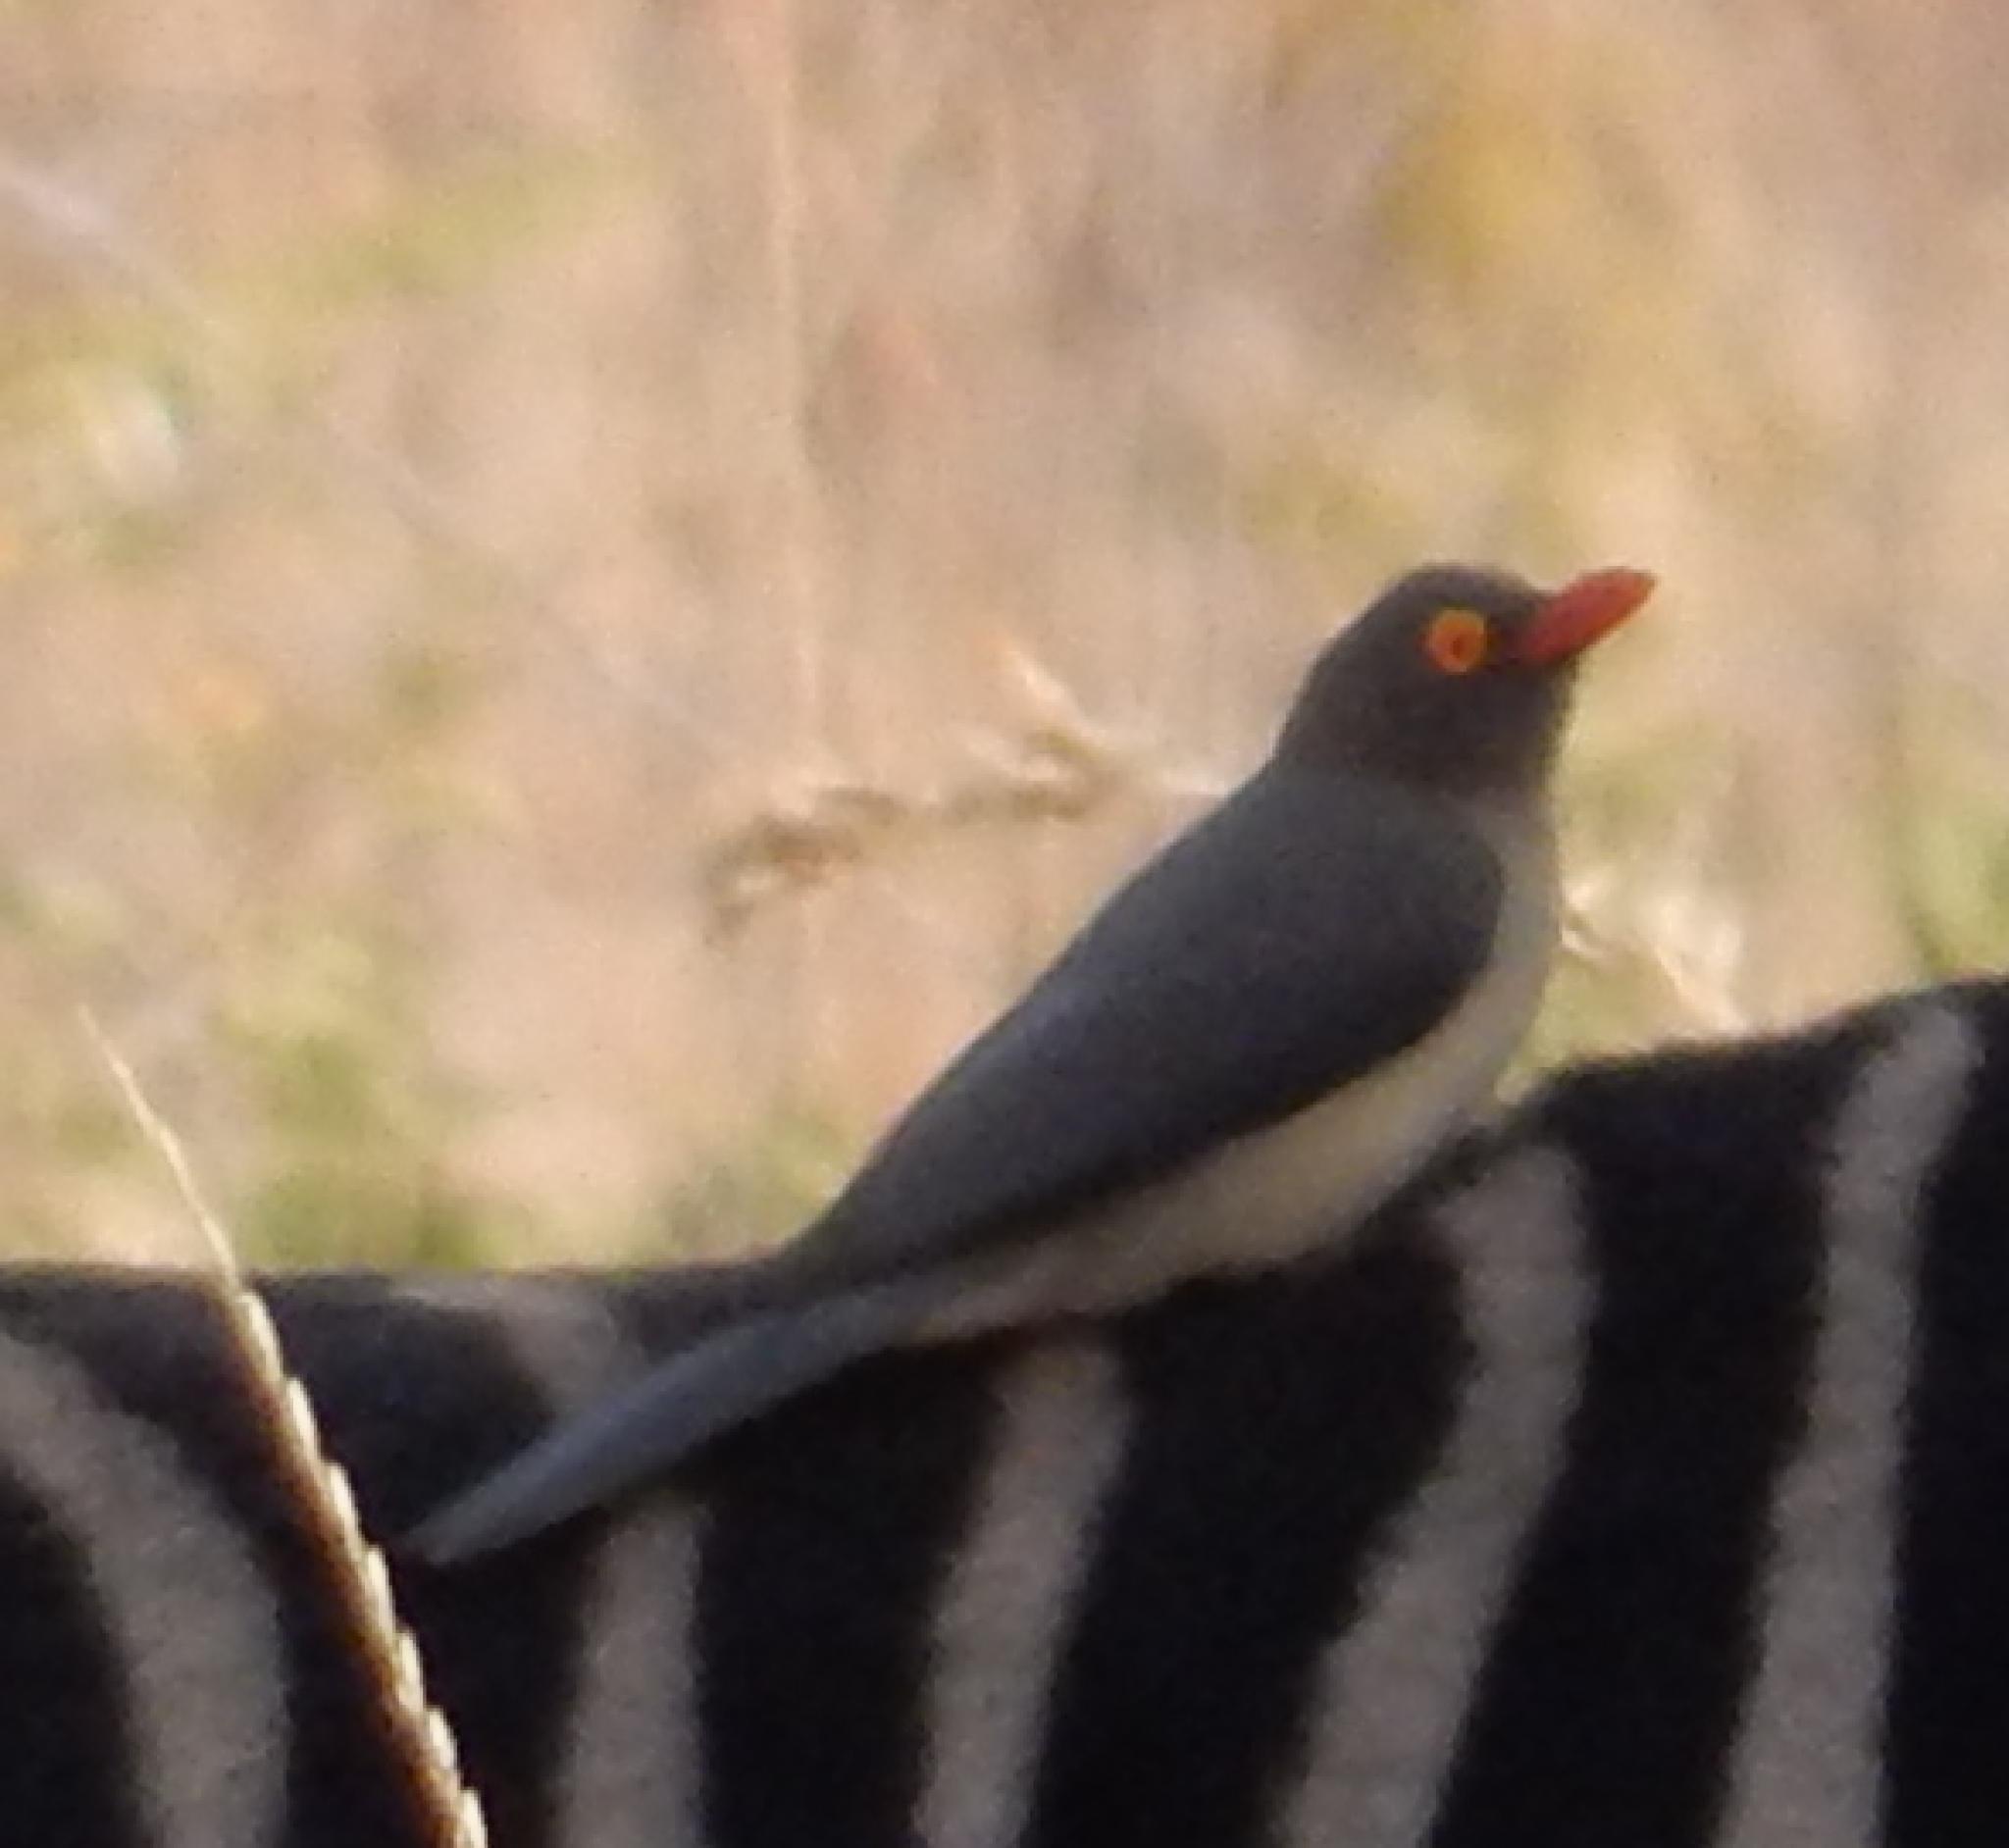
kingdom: Animalia
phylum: Chordata
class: Aves
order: Passeriformes
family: Buphagidae
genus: Buphagus
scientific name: Buphagus erythrorhynchus
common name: Red-billed oxpecker
